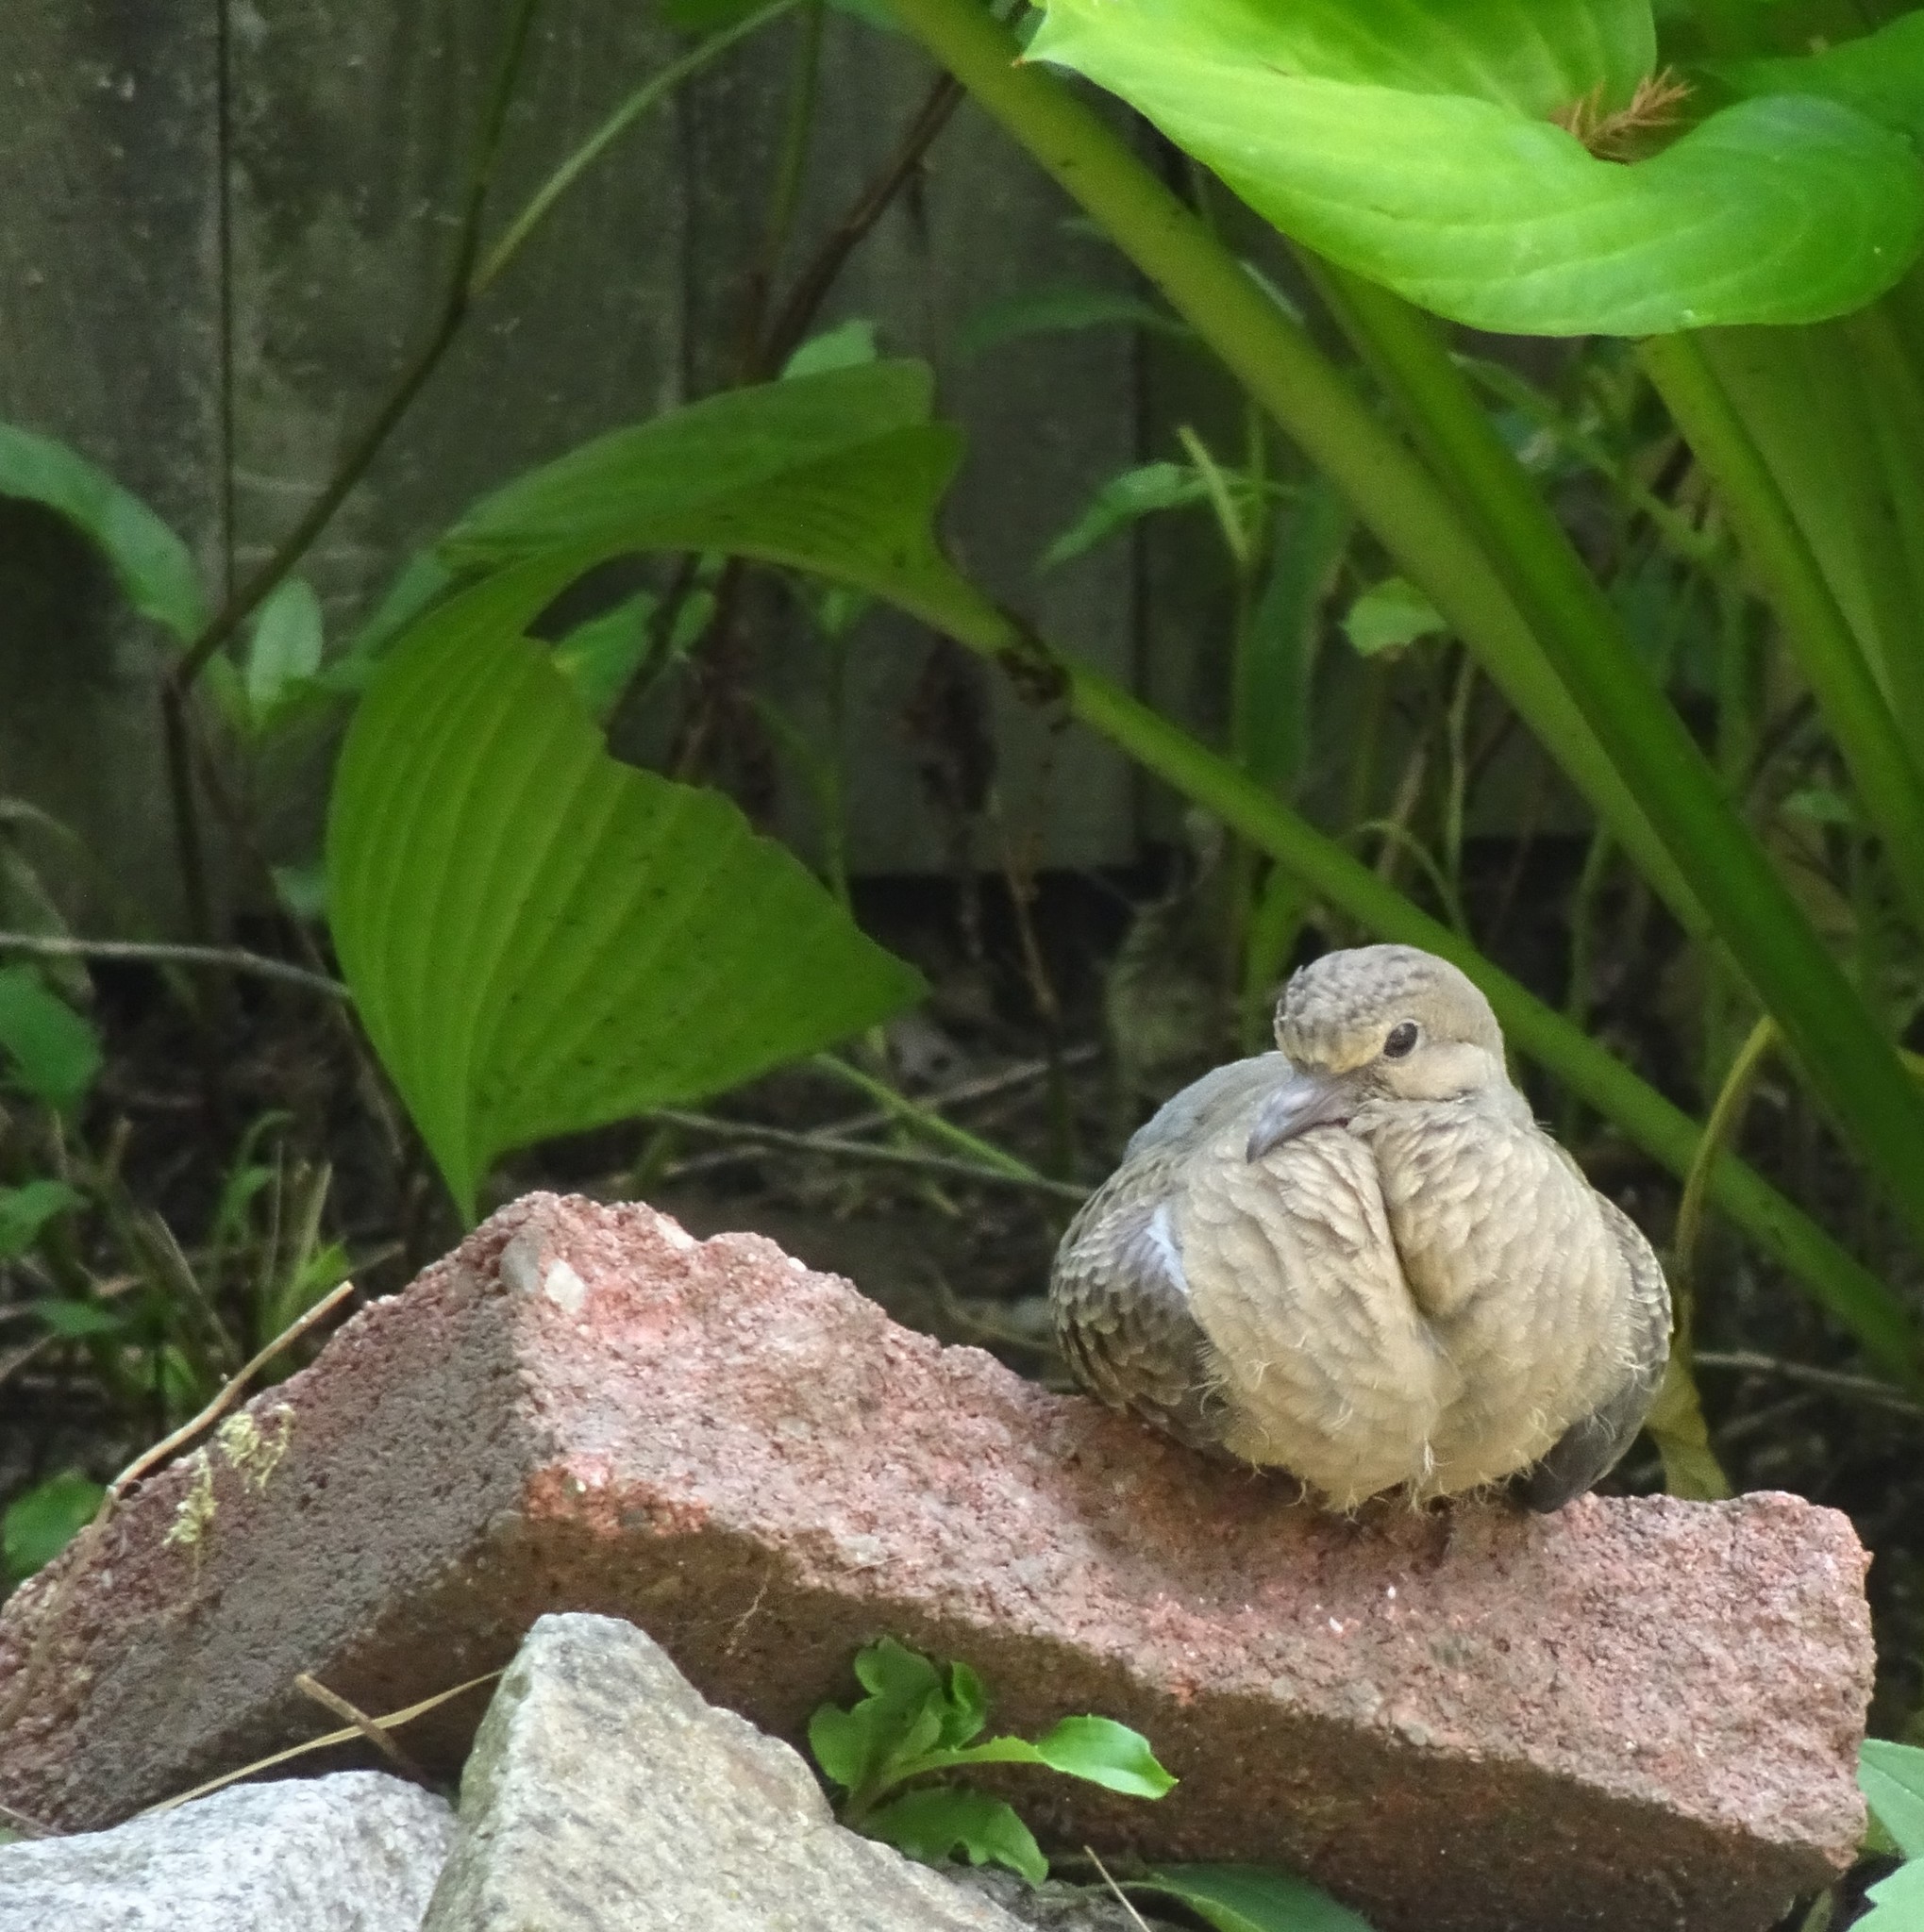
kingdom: Animalia
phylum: Chordata
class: Aves
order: Columbiformes
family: Columbidae
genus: Zenaida
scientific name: Zenaida macroura
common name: Mourning dove
